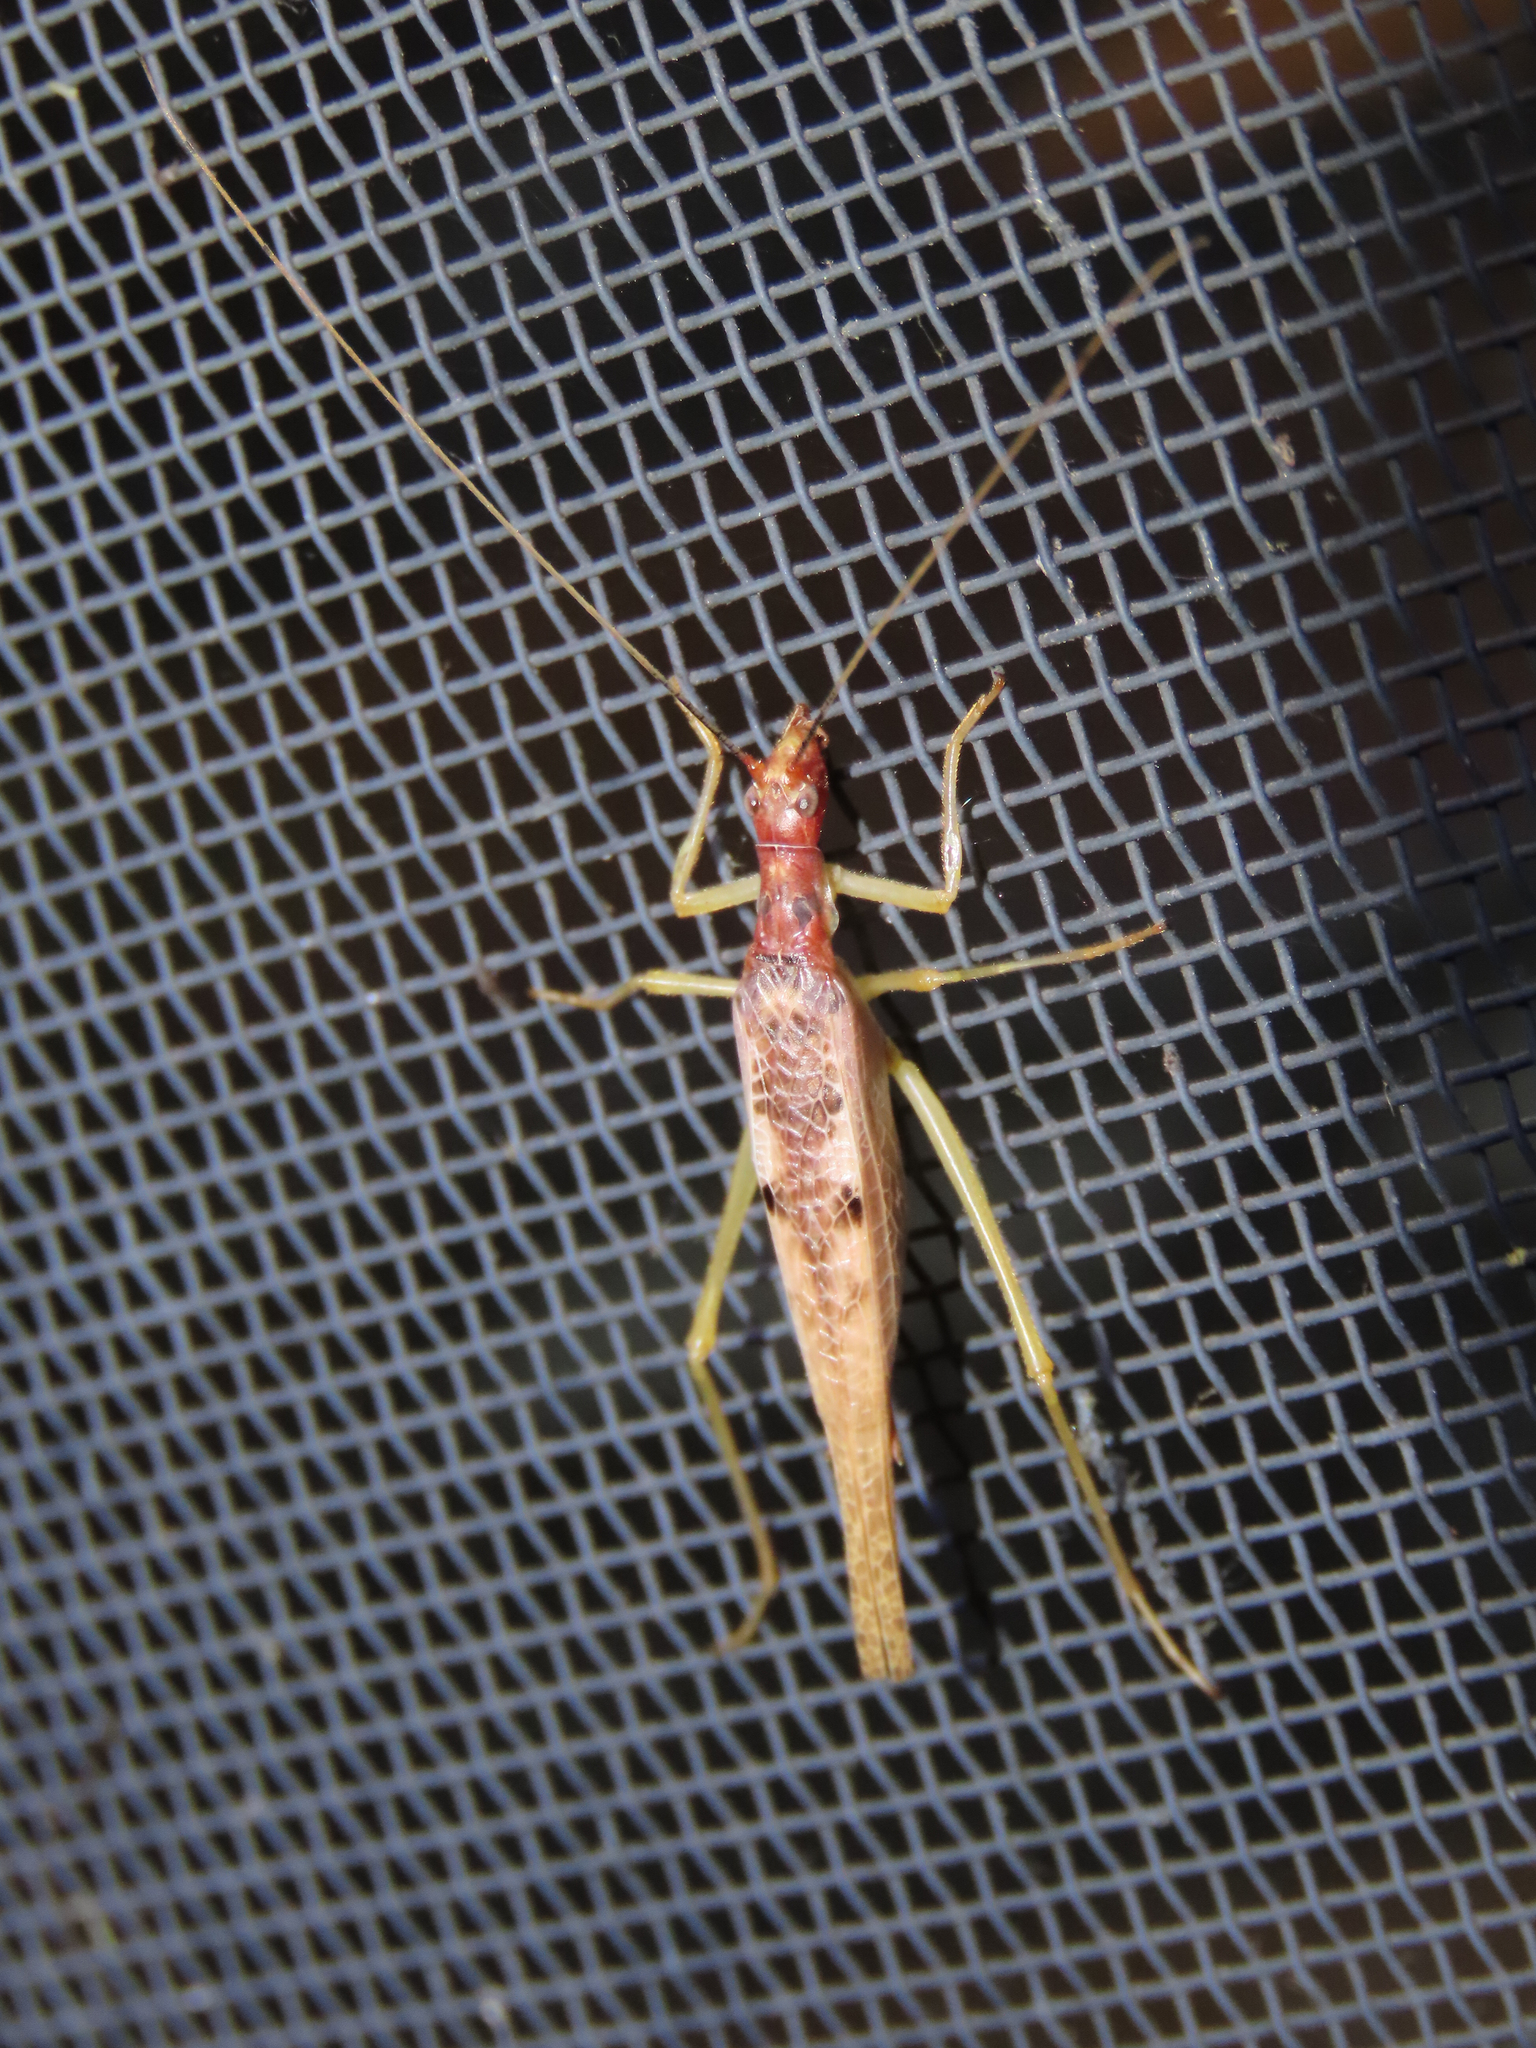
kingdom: Animalia
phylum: Arthropoda
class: Insecta
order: Orthoptera
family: Gryllidae
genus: Neoxabea
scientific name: Neoxabea bipunctata
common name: Two-spotted tree cricket
